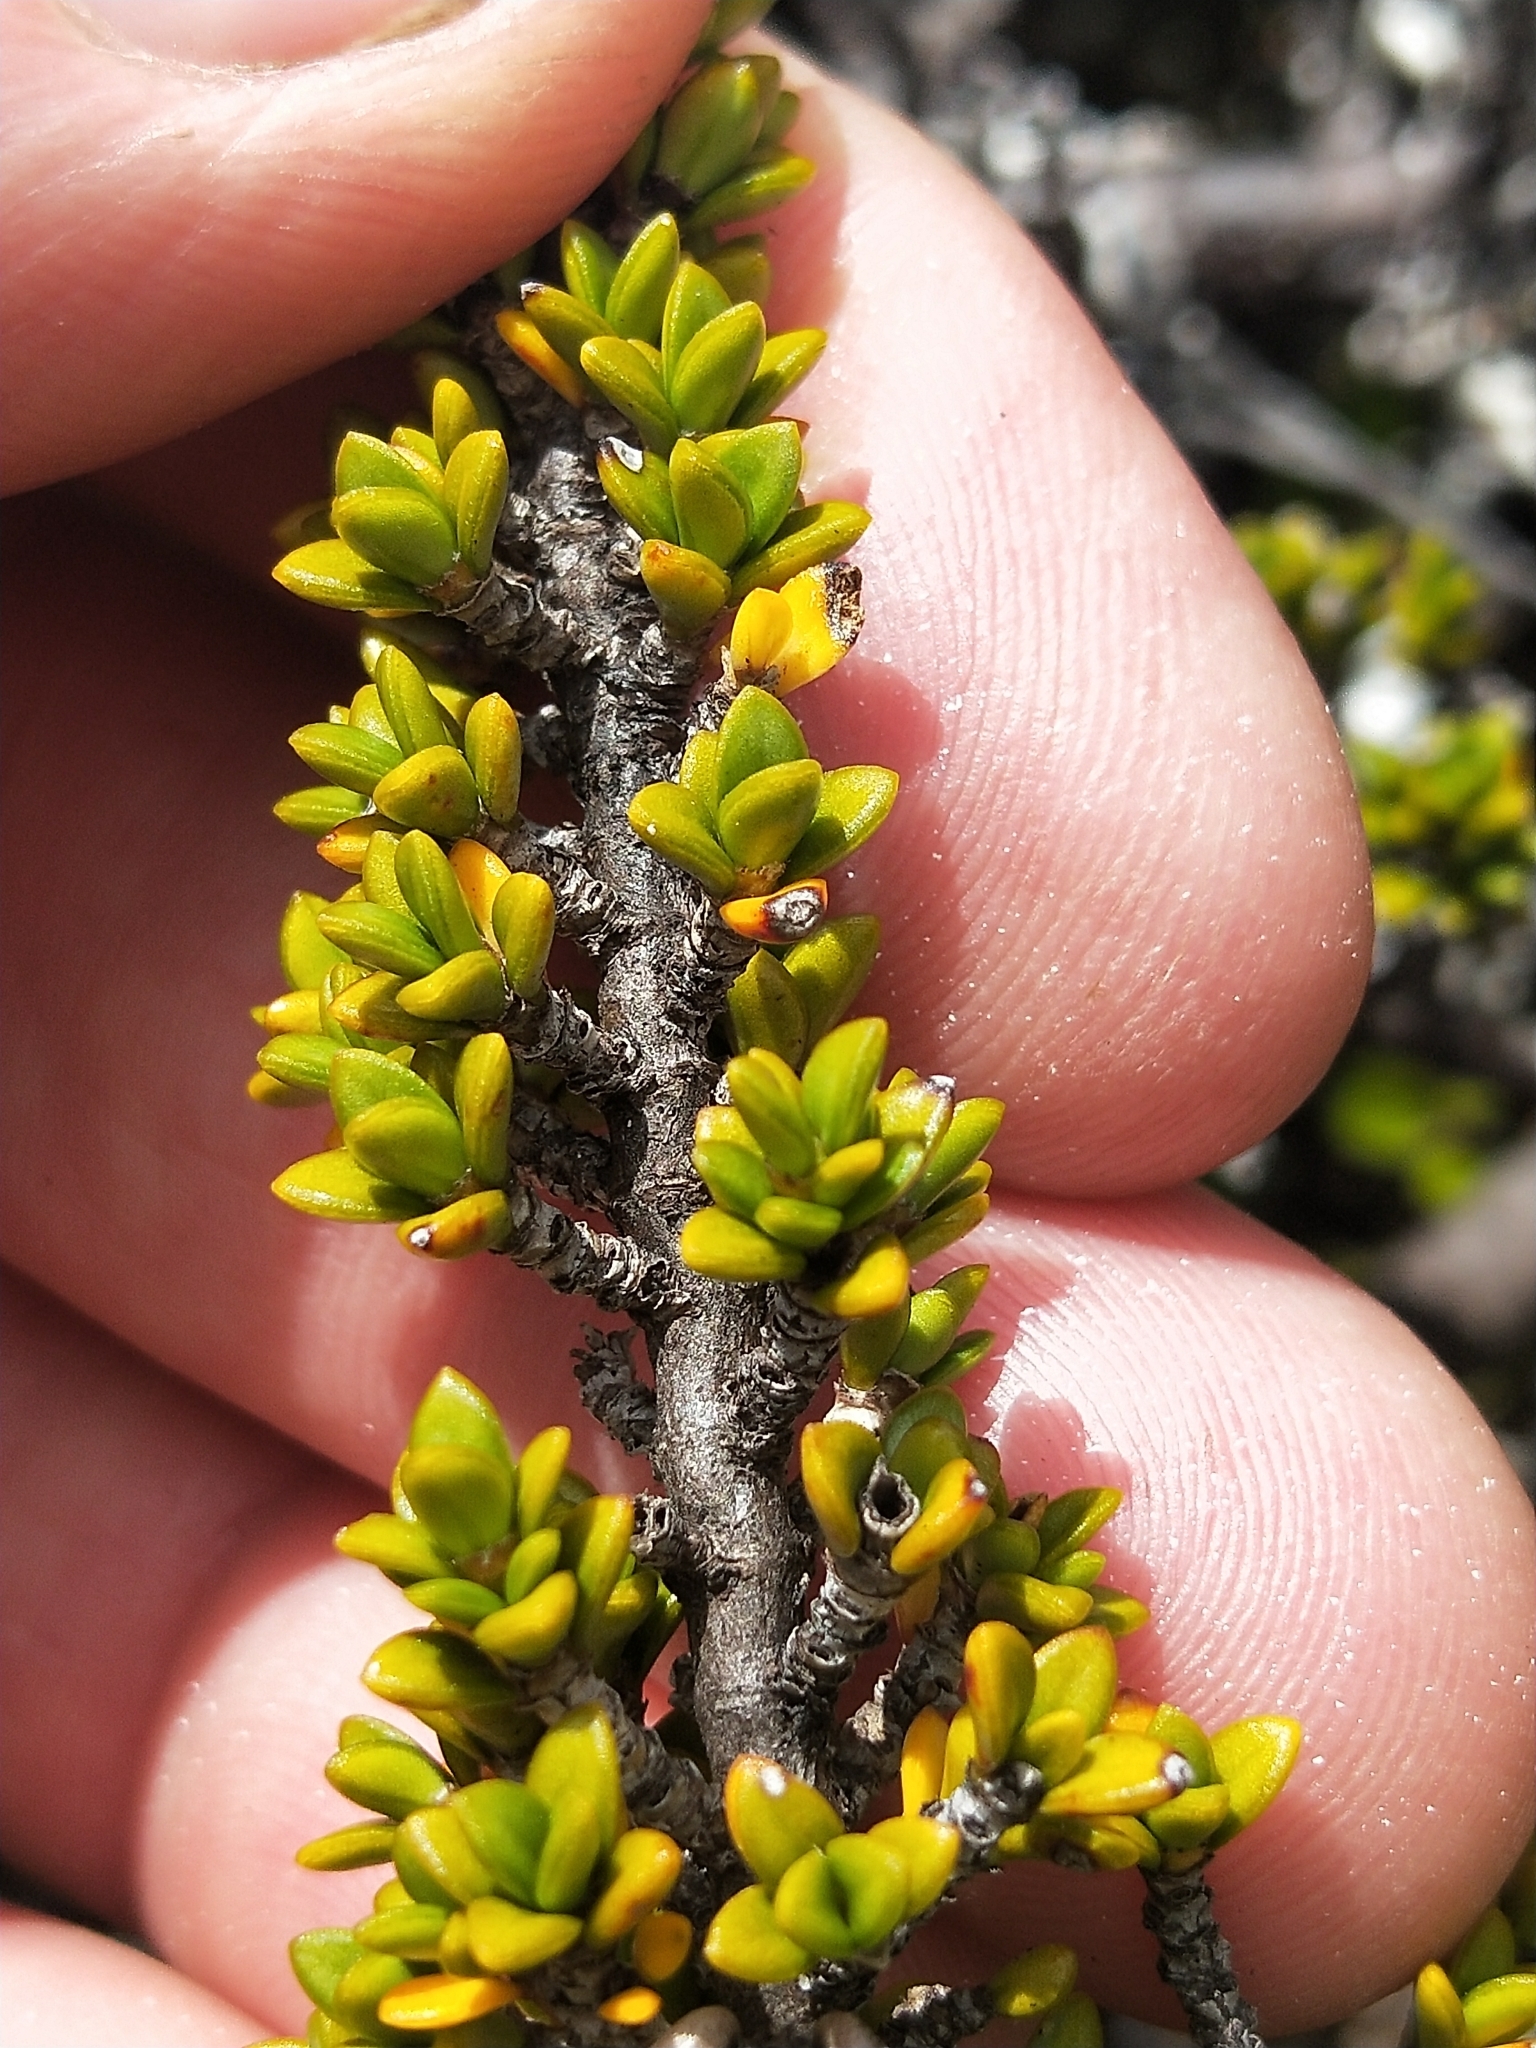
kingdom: Plantae
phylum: Tracheophyta
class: Magnoliopsida
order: Gentianales
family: Rubiaceae
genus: Coprosma
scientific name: Coprosma fowerakeri
